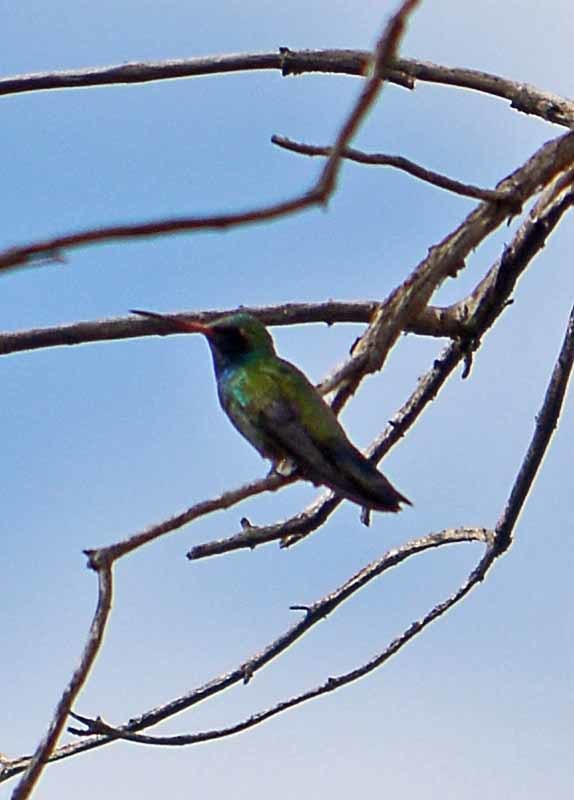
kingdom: Animalia
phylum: Chordata
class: Aves
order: Apodiformes
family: Trochilidae
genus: Cynanthus
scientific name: Cynanthus latirostris
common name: Broad-billed hummingbird
